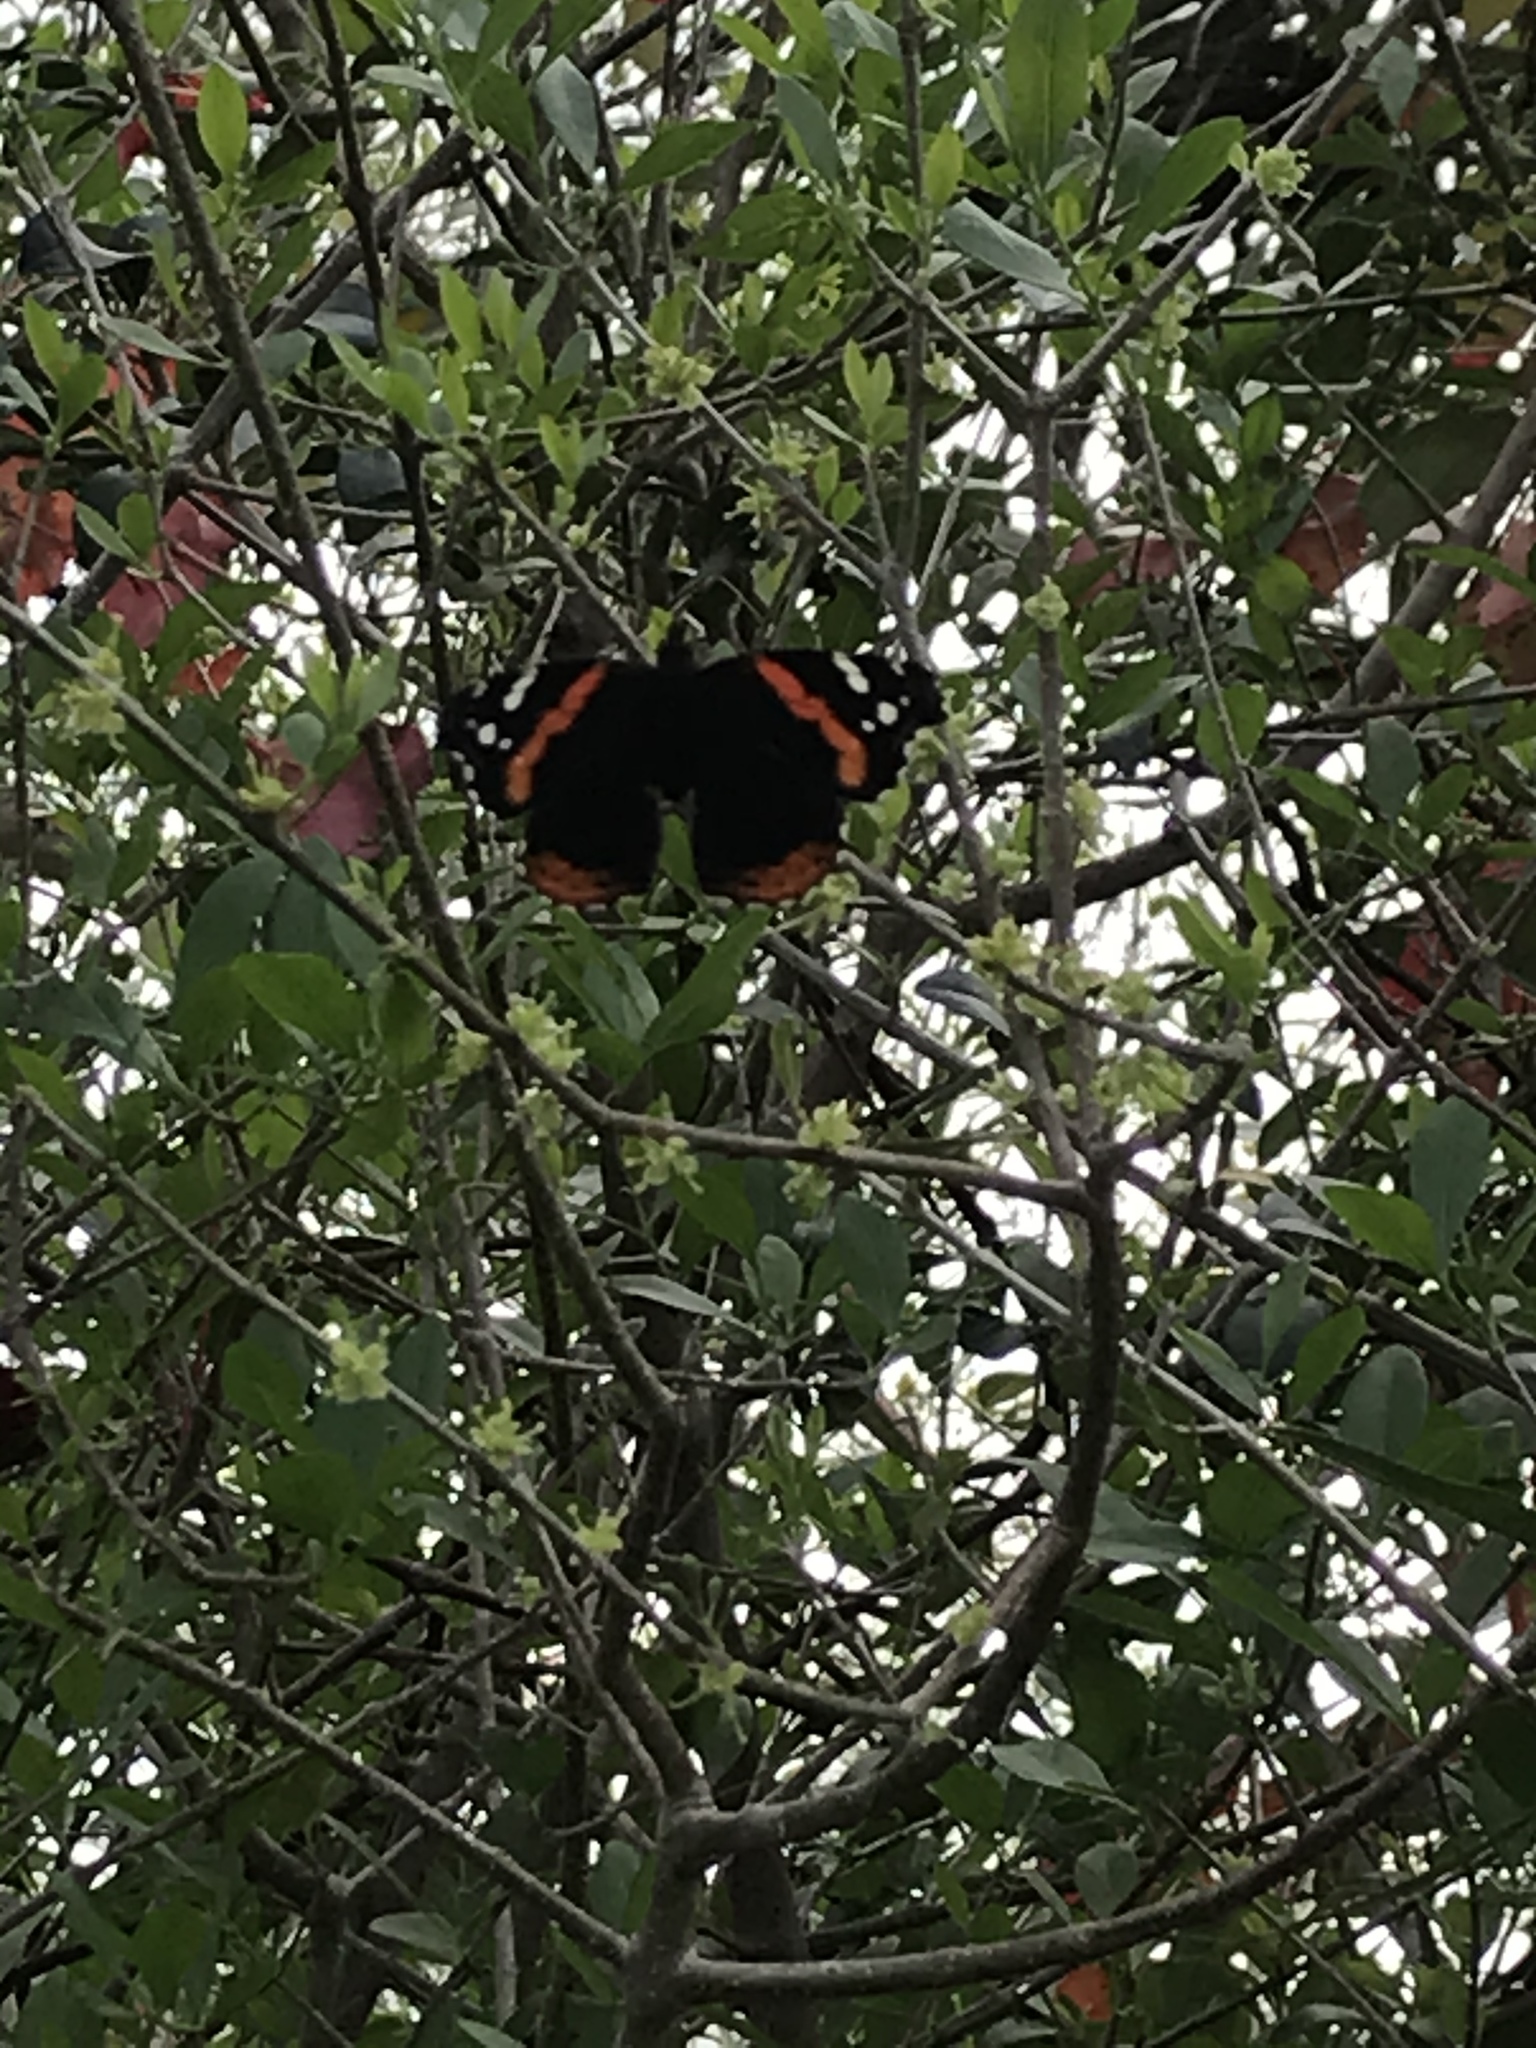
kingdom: Animalia
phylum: Arthropoda
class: Insecta
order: Lepidoptera
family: Nymphalidae
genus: Vanessa
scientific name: Vanessa atalanta
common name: Red admiral
